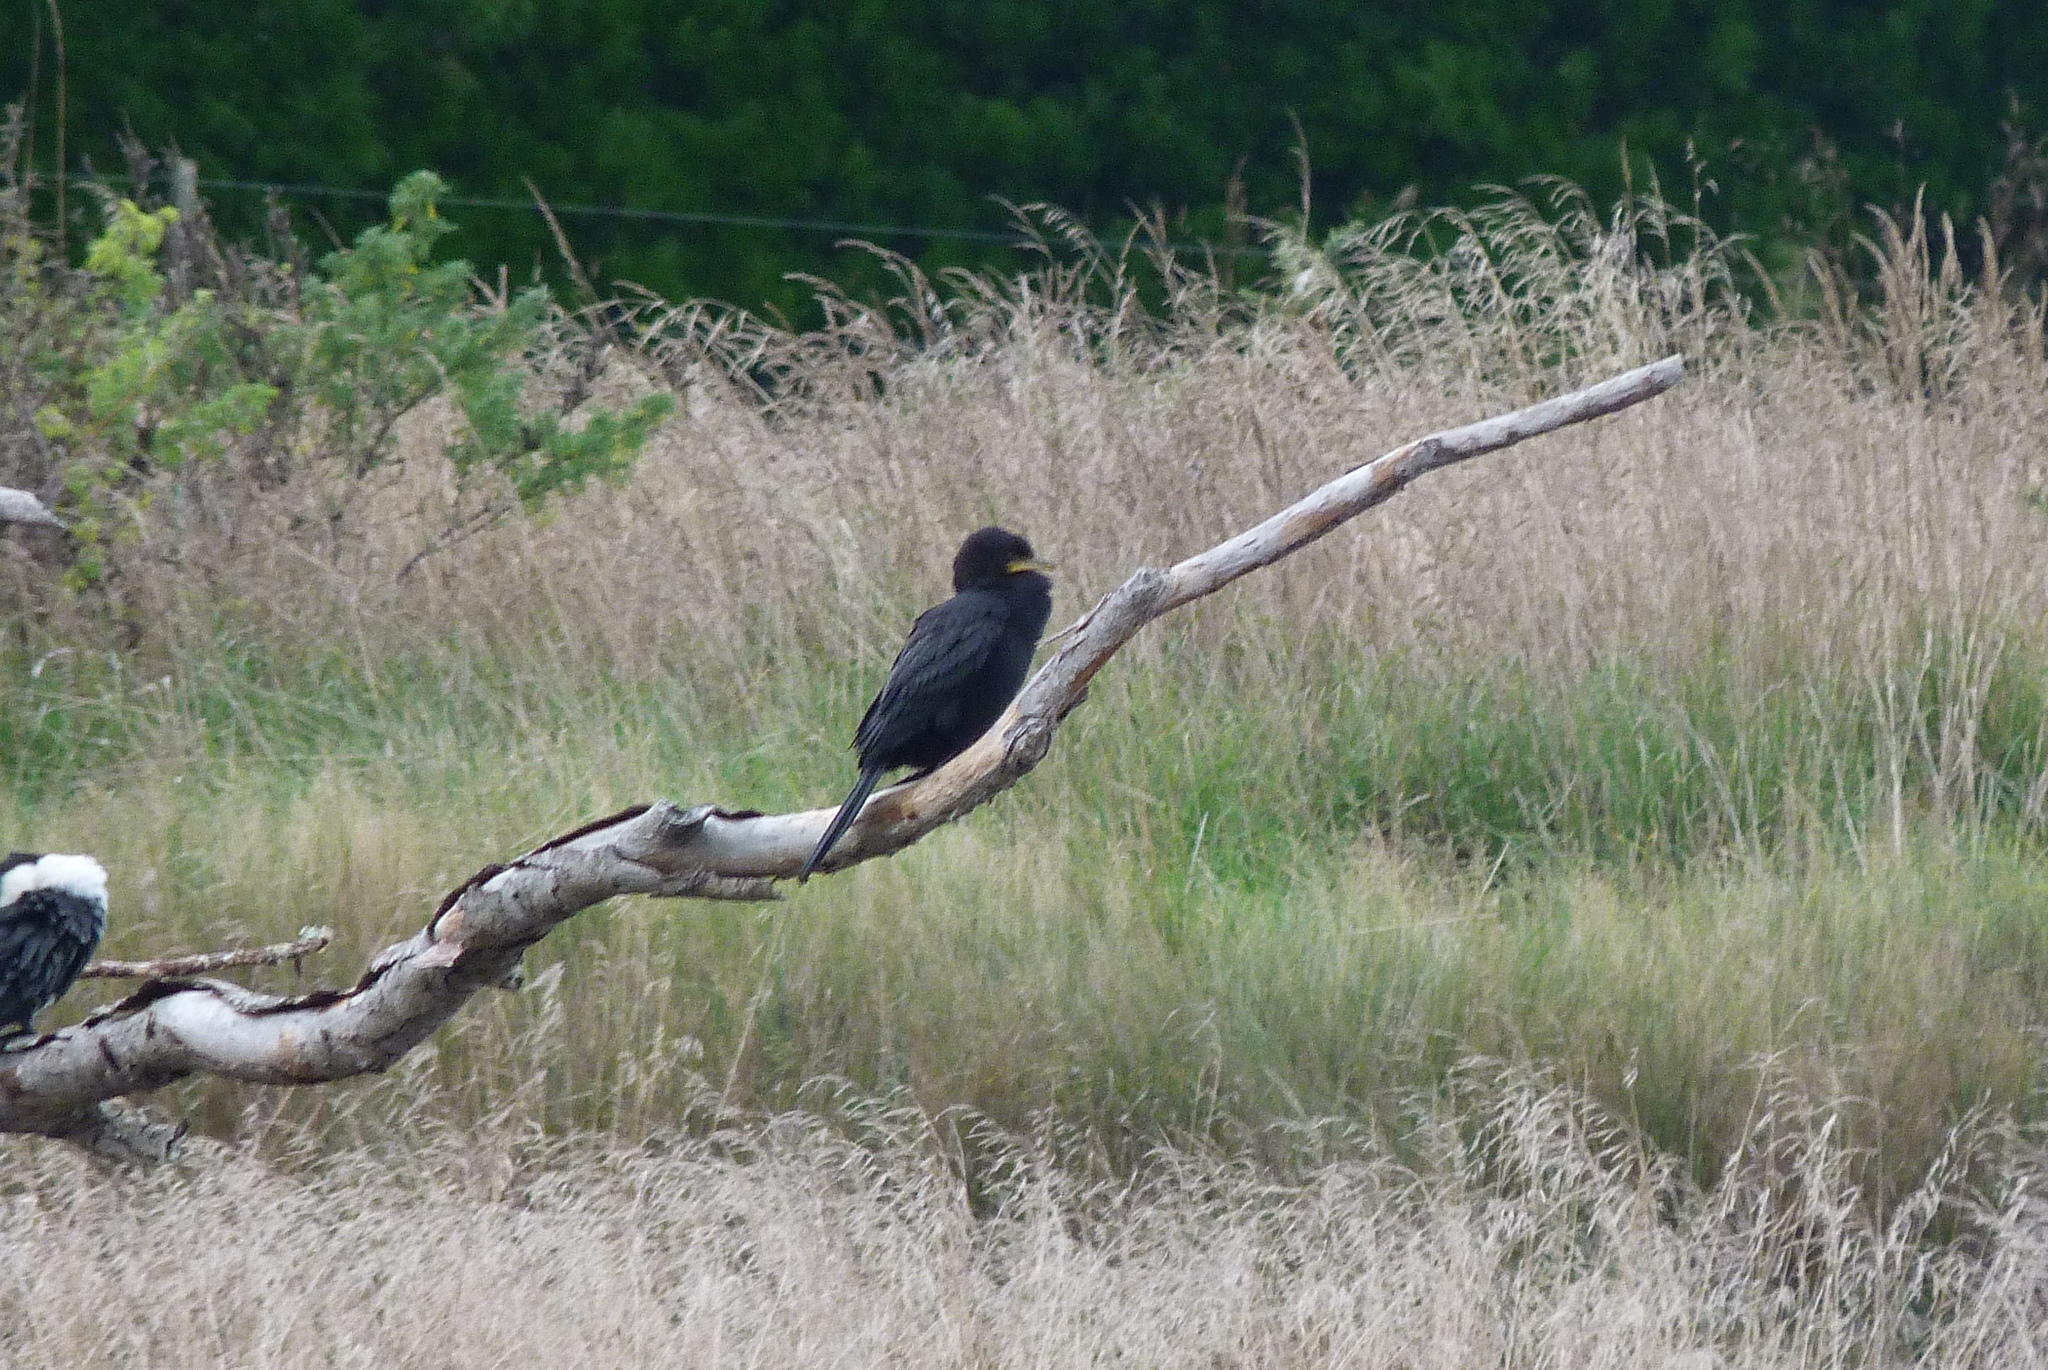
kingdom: Animalia
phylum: Chordata
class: Aves
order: Suliformes
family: Phalacrocoracidae
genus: Microcarbo
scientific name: Microcarbo melanoleucos
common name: Little pied cormorant
